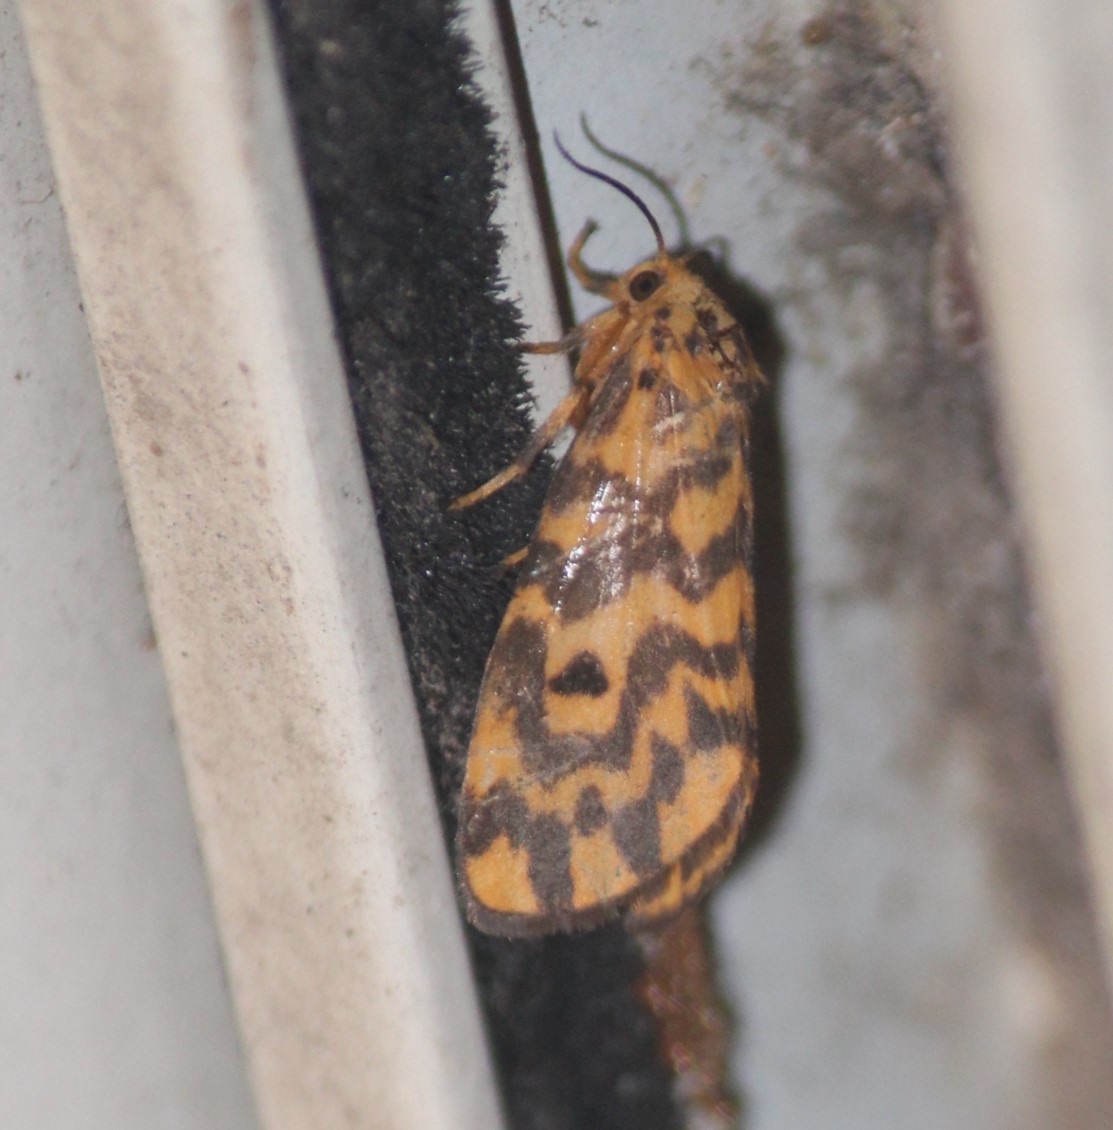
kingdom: Animalia
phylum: Arthropoda
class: Insecta
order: Lepidoptera
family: Erebidae
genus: Nepita
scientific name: Nepita conferta
